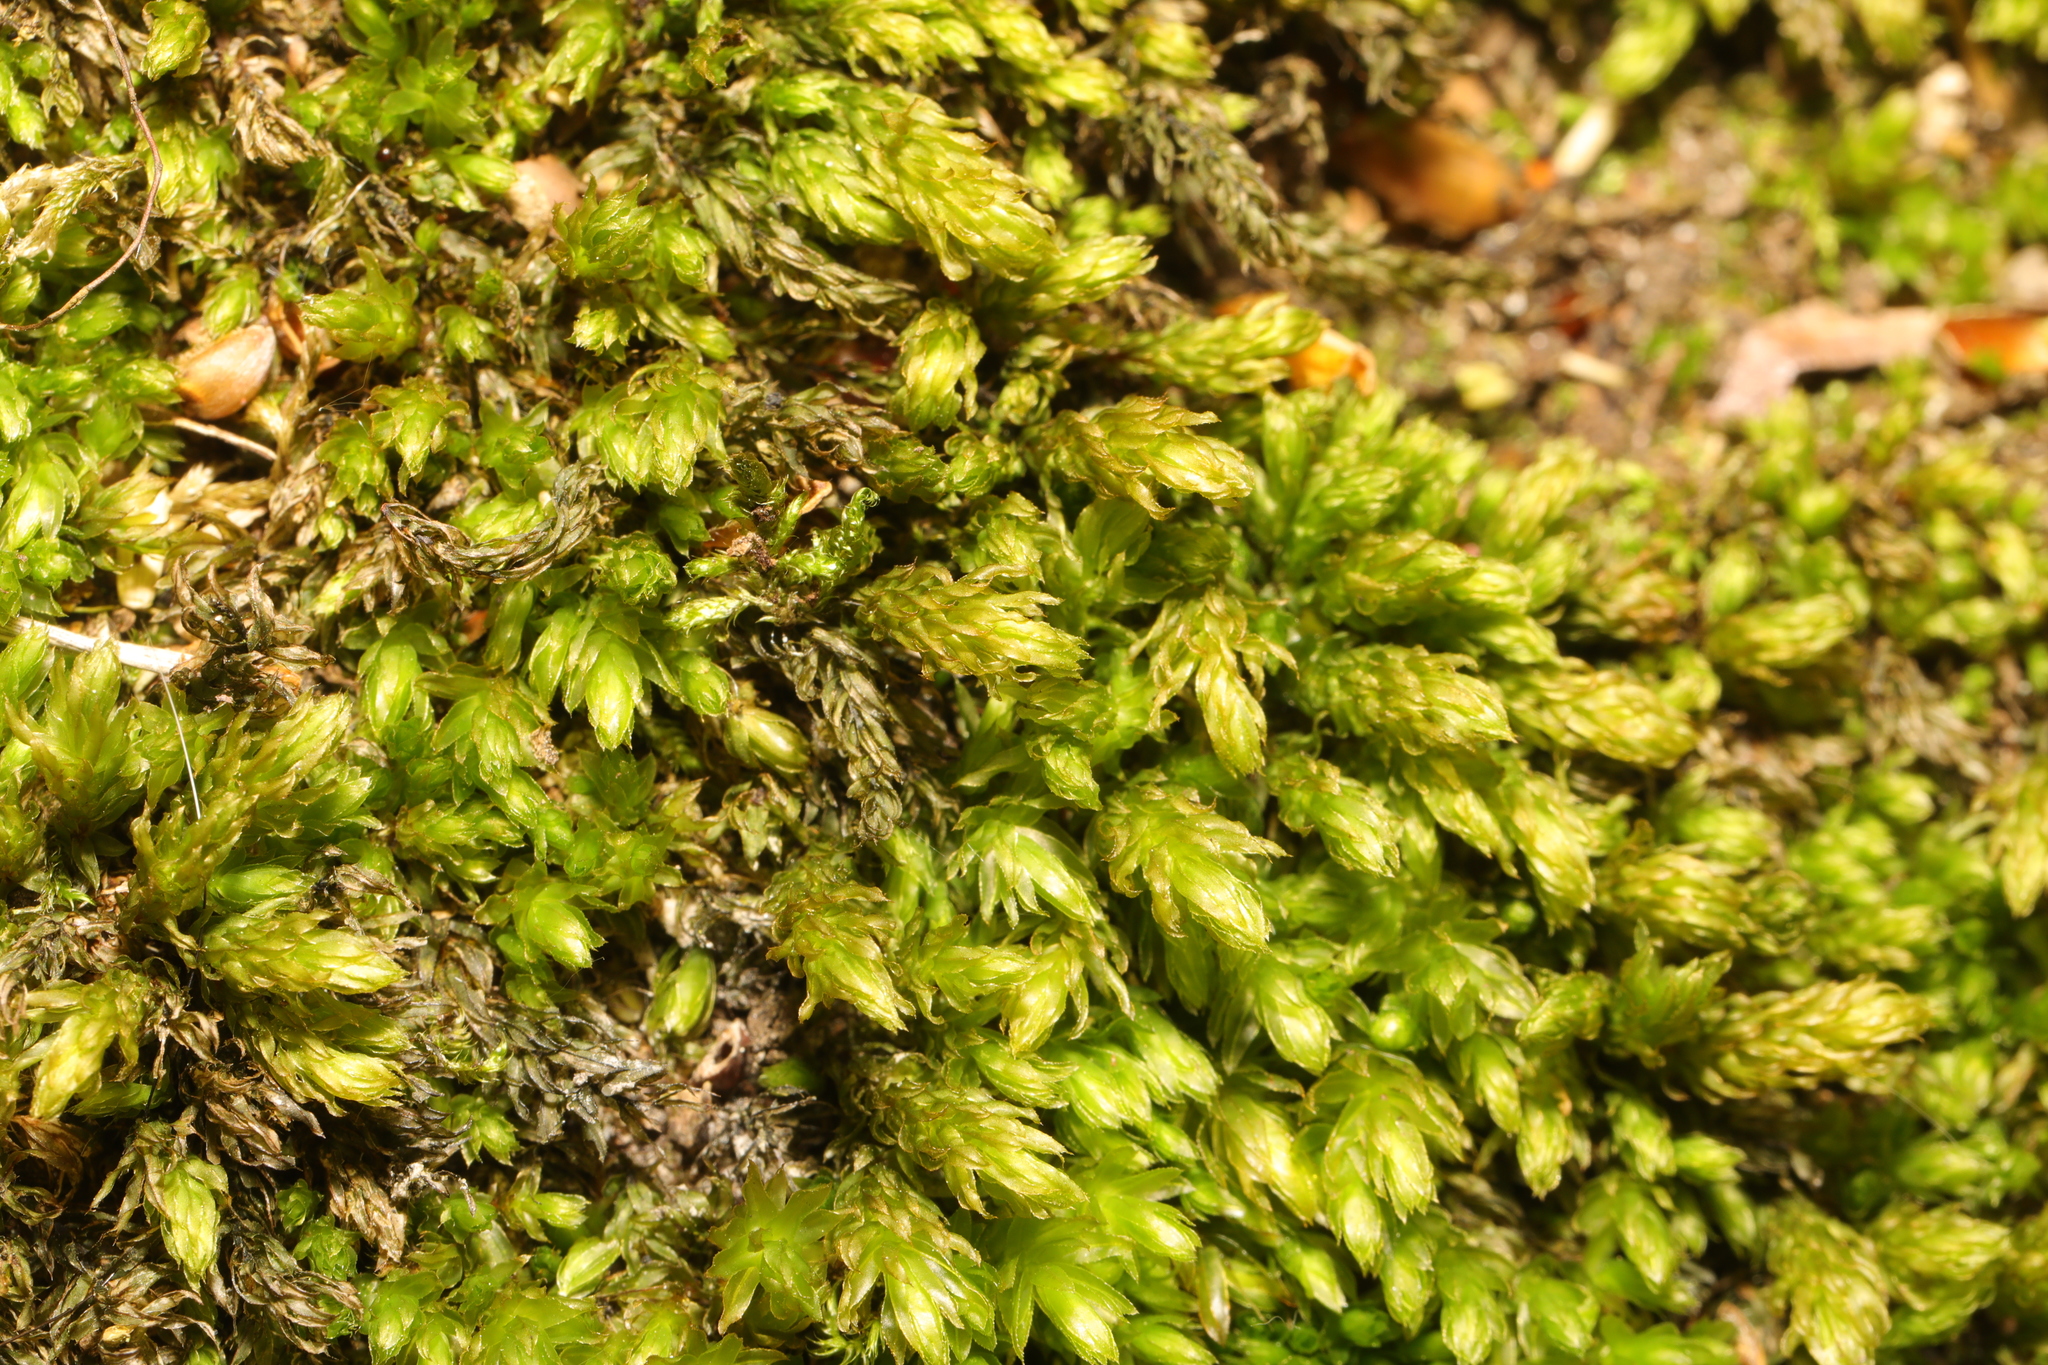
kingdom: Plantae
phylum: Bryophyta
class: Bryopsida
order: Bryales
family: Mniaceae
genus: Mnium
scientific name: Mnium hornum
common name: Swan's-neck leafy moss
